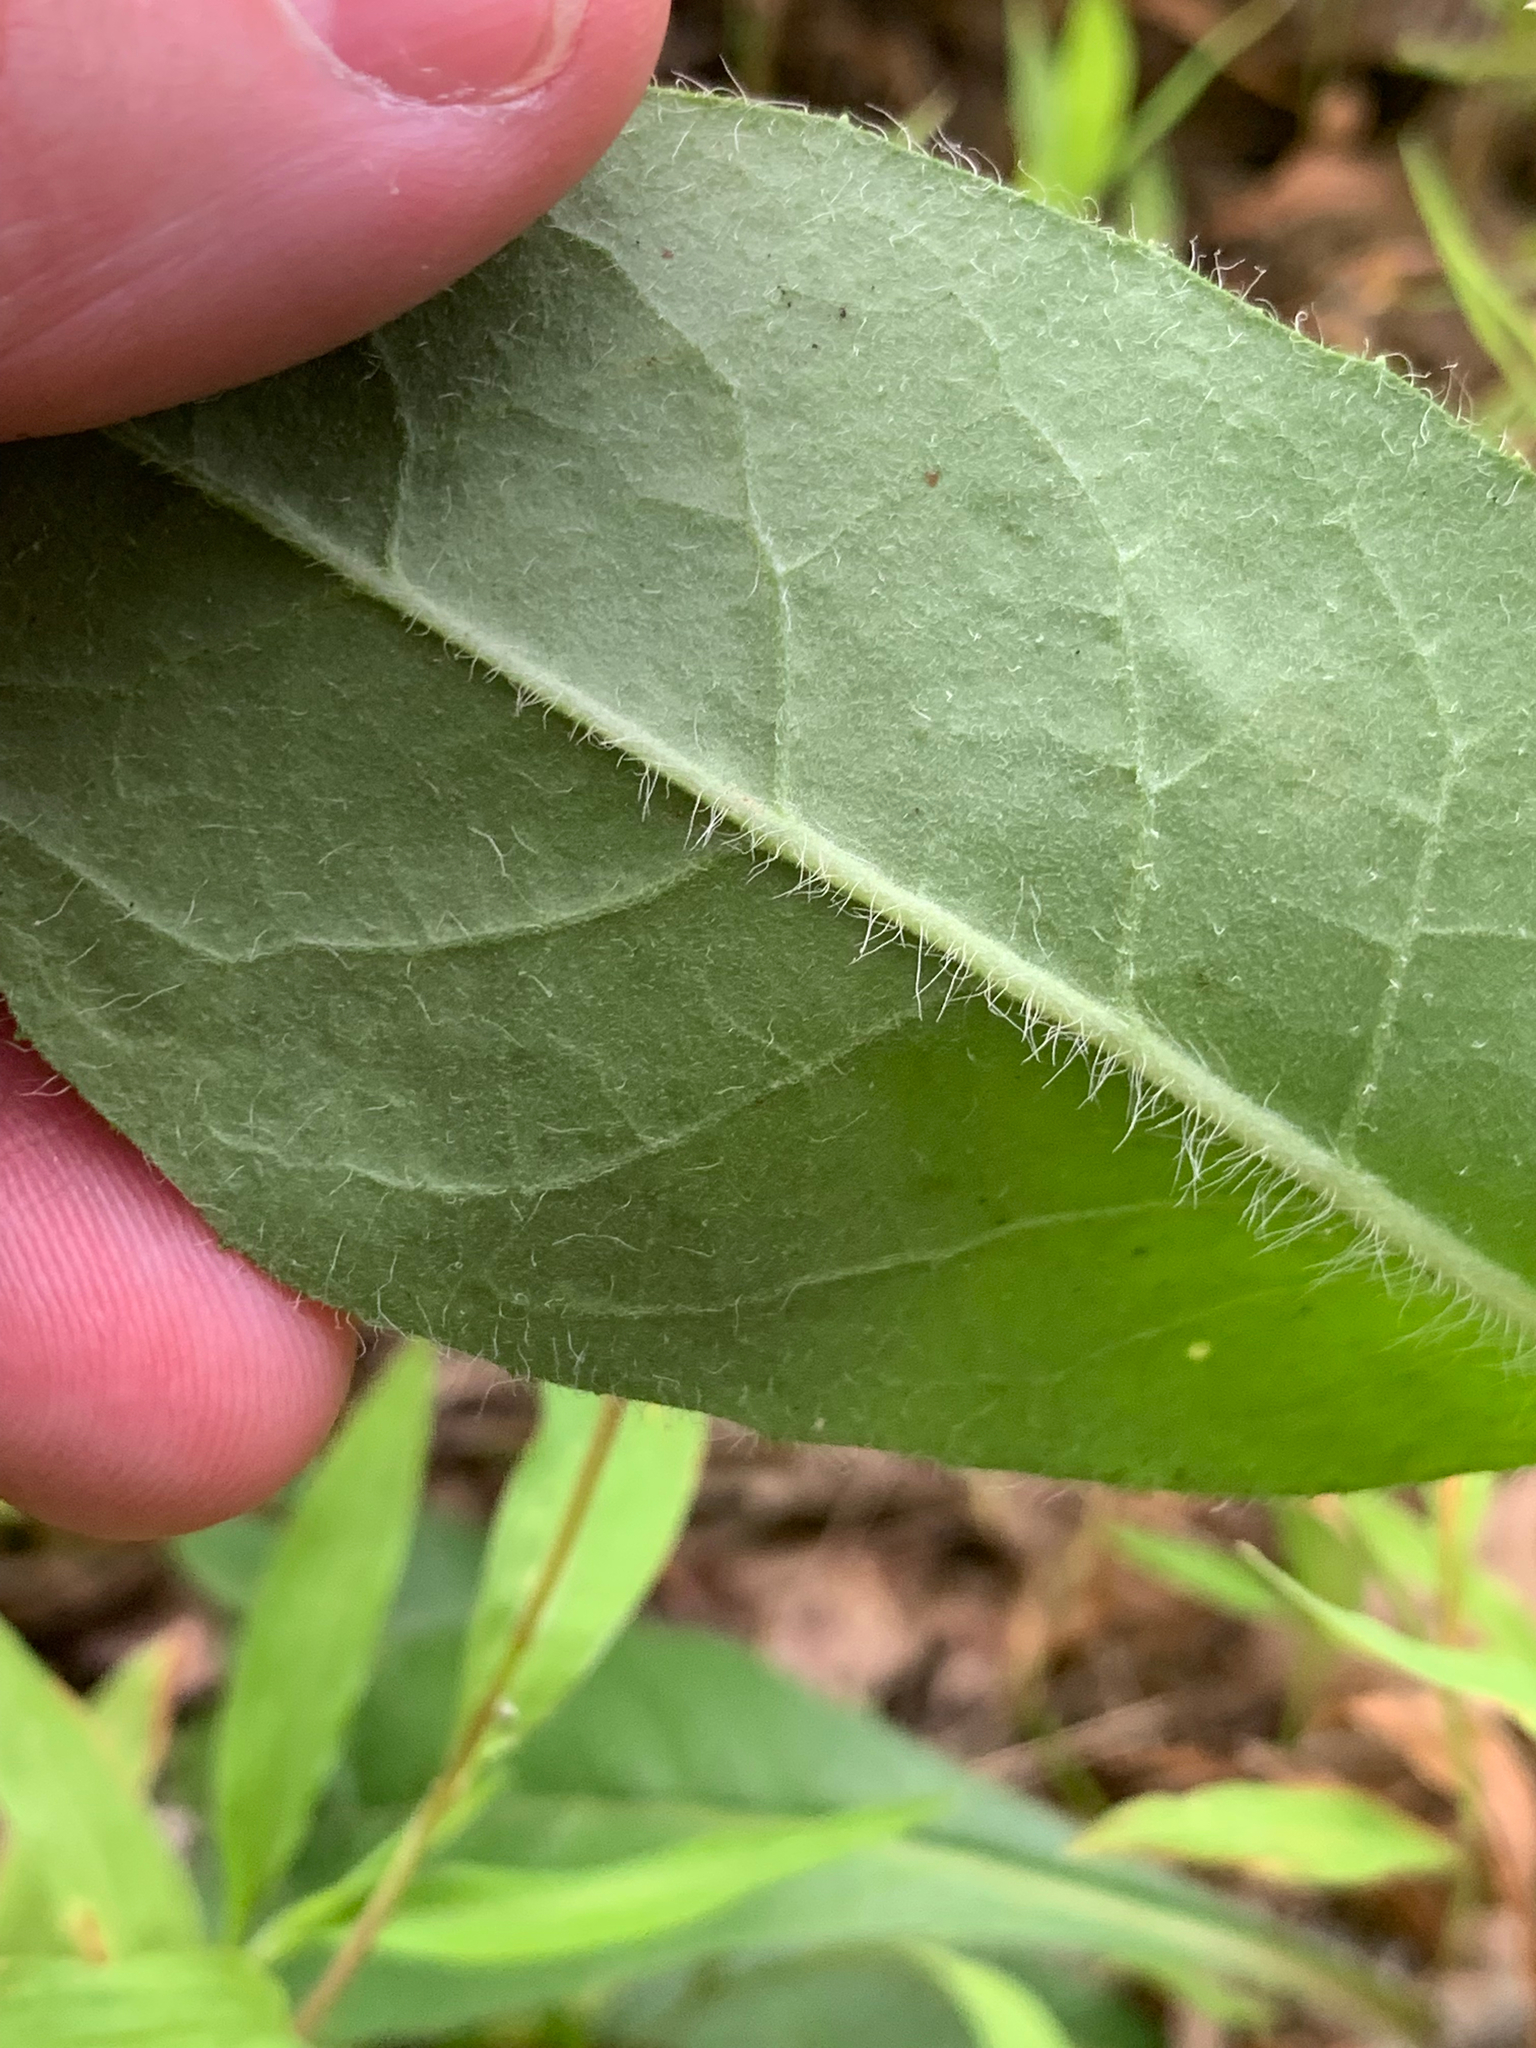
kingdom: Plantae
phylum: Tracheophyta
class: Magnoliopsida
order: Asterales
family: Asteraceae
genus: Hieracium
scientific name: Hieracium gronovii
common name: Beaked hawkweed
